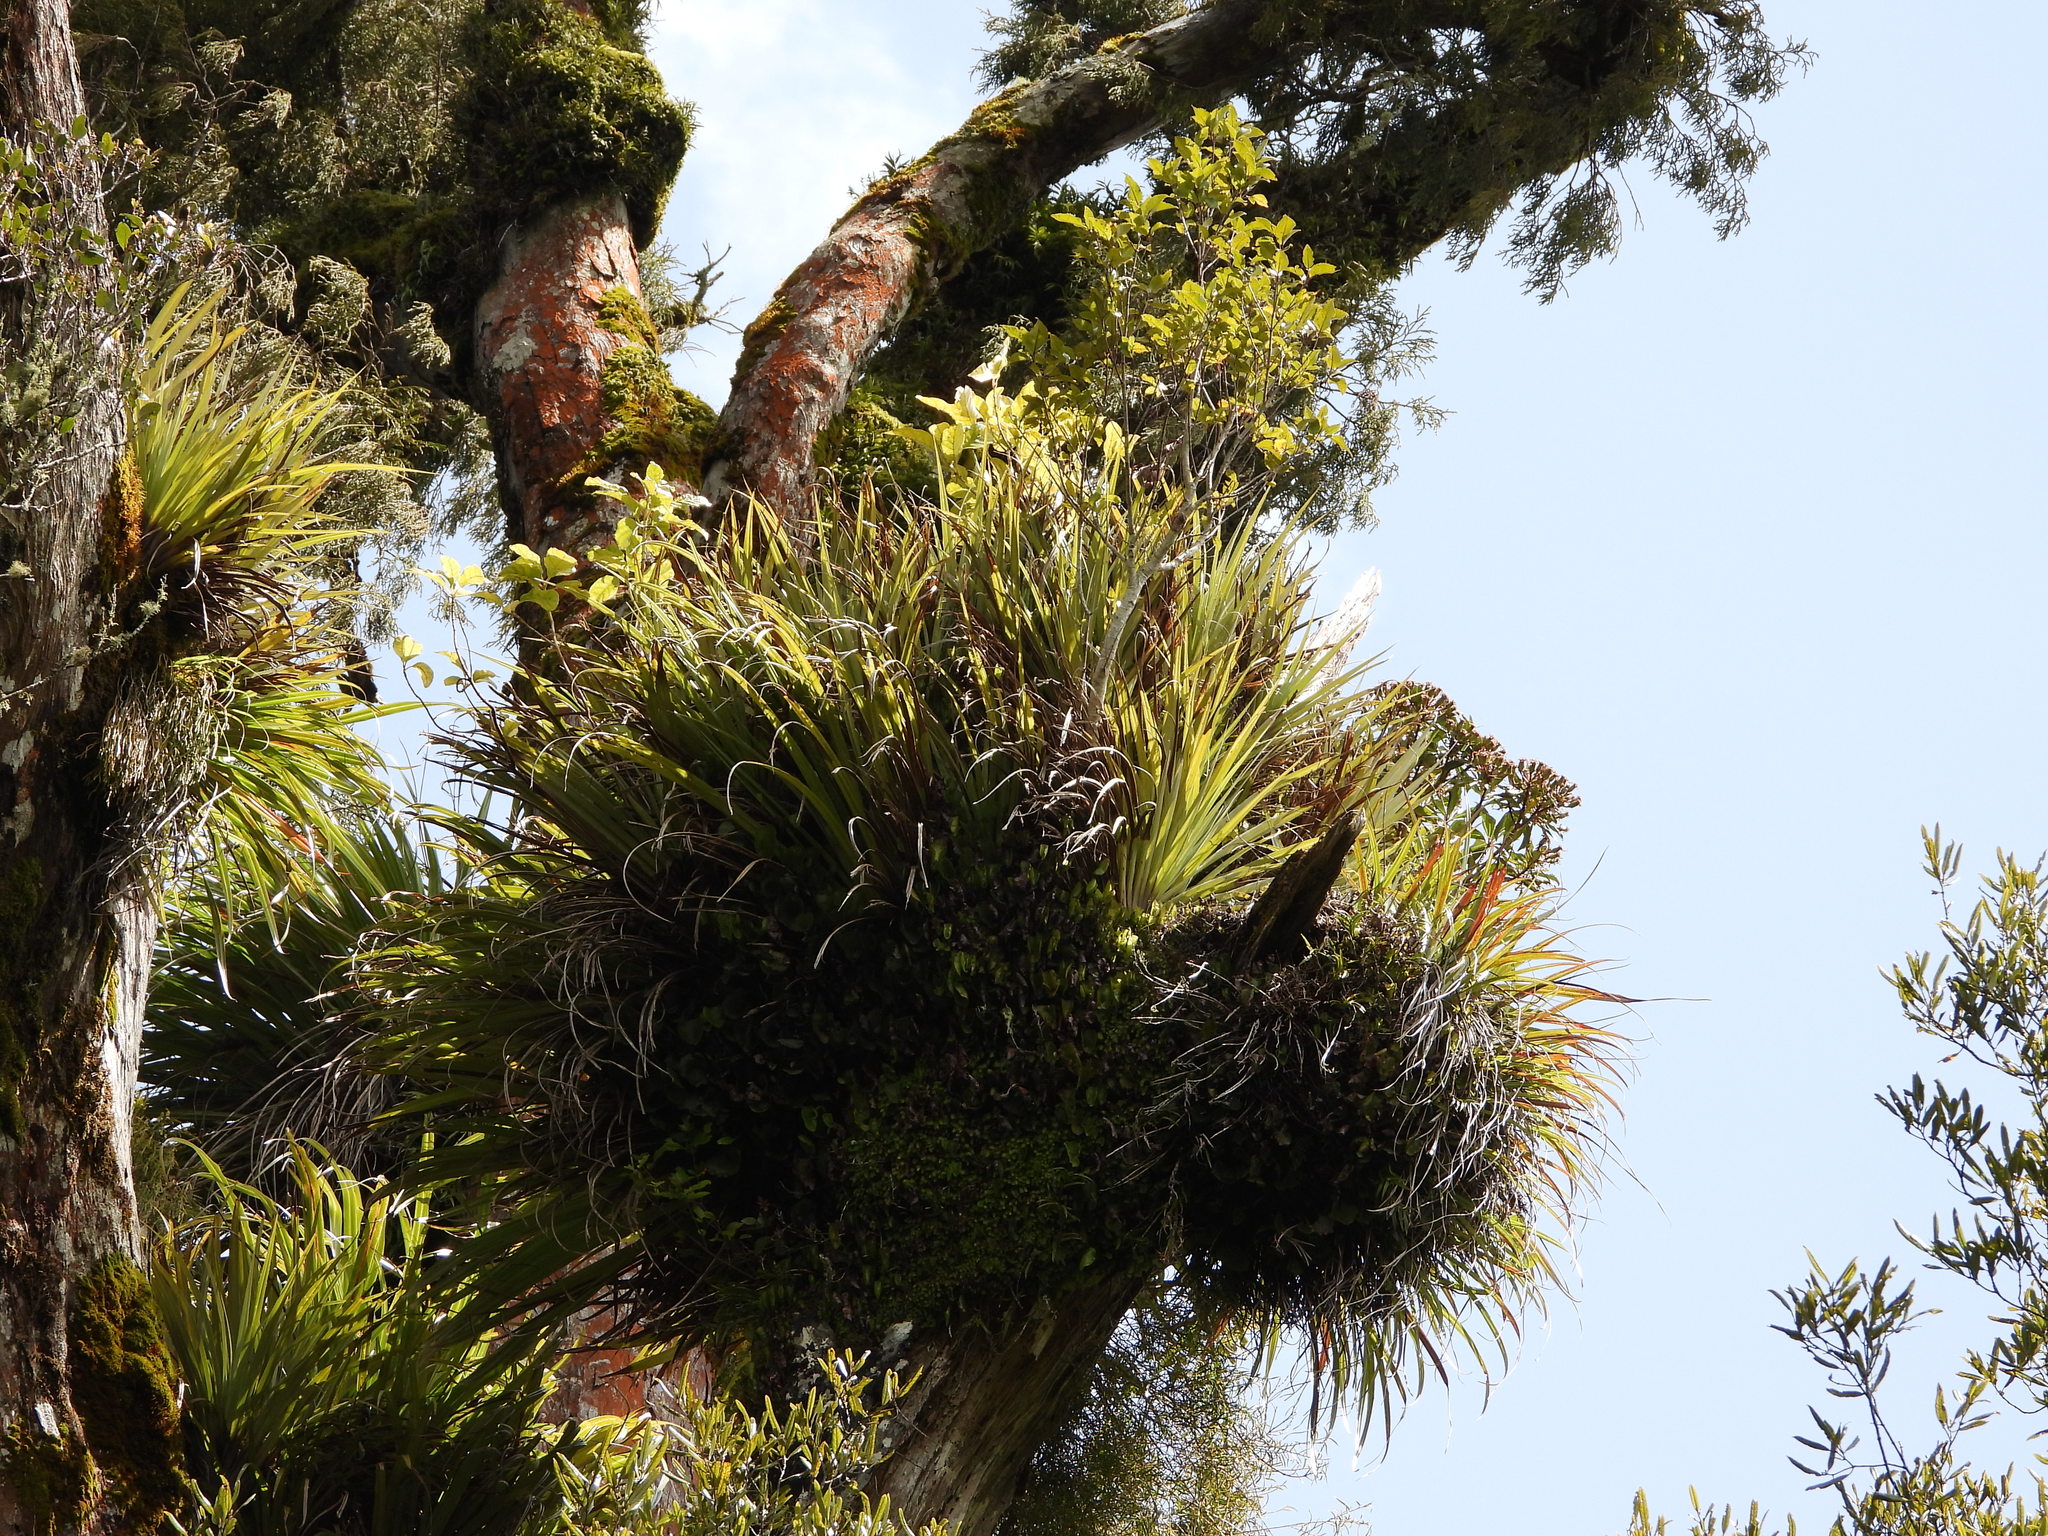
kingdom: Plantae
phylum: Tracheophyta
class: Magnoliopsida
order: Asterales
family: Asteraceae
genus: Brachyglottis
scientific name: Brachyglottis kirkii
